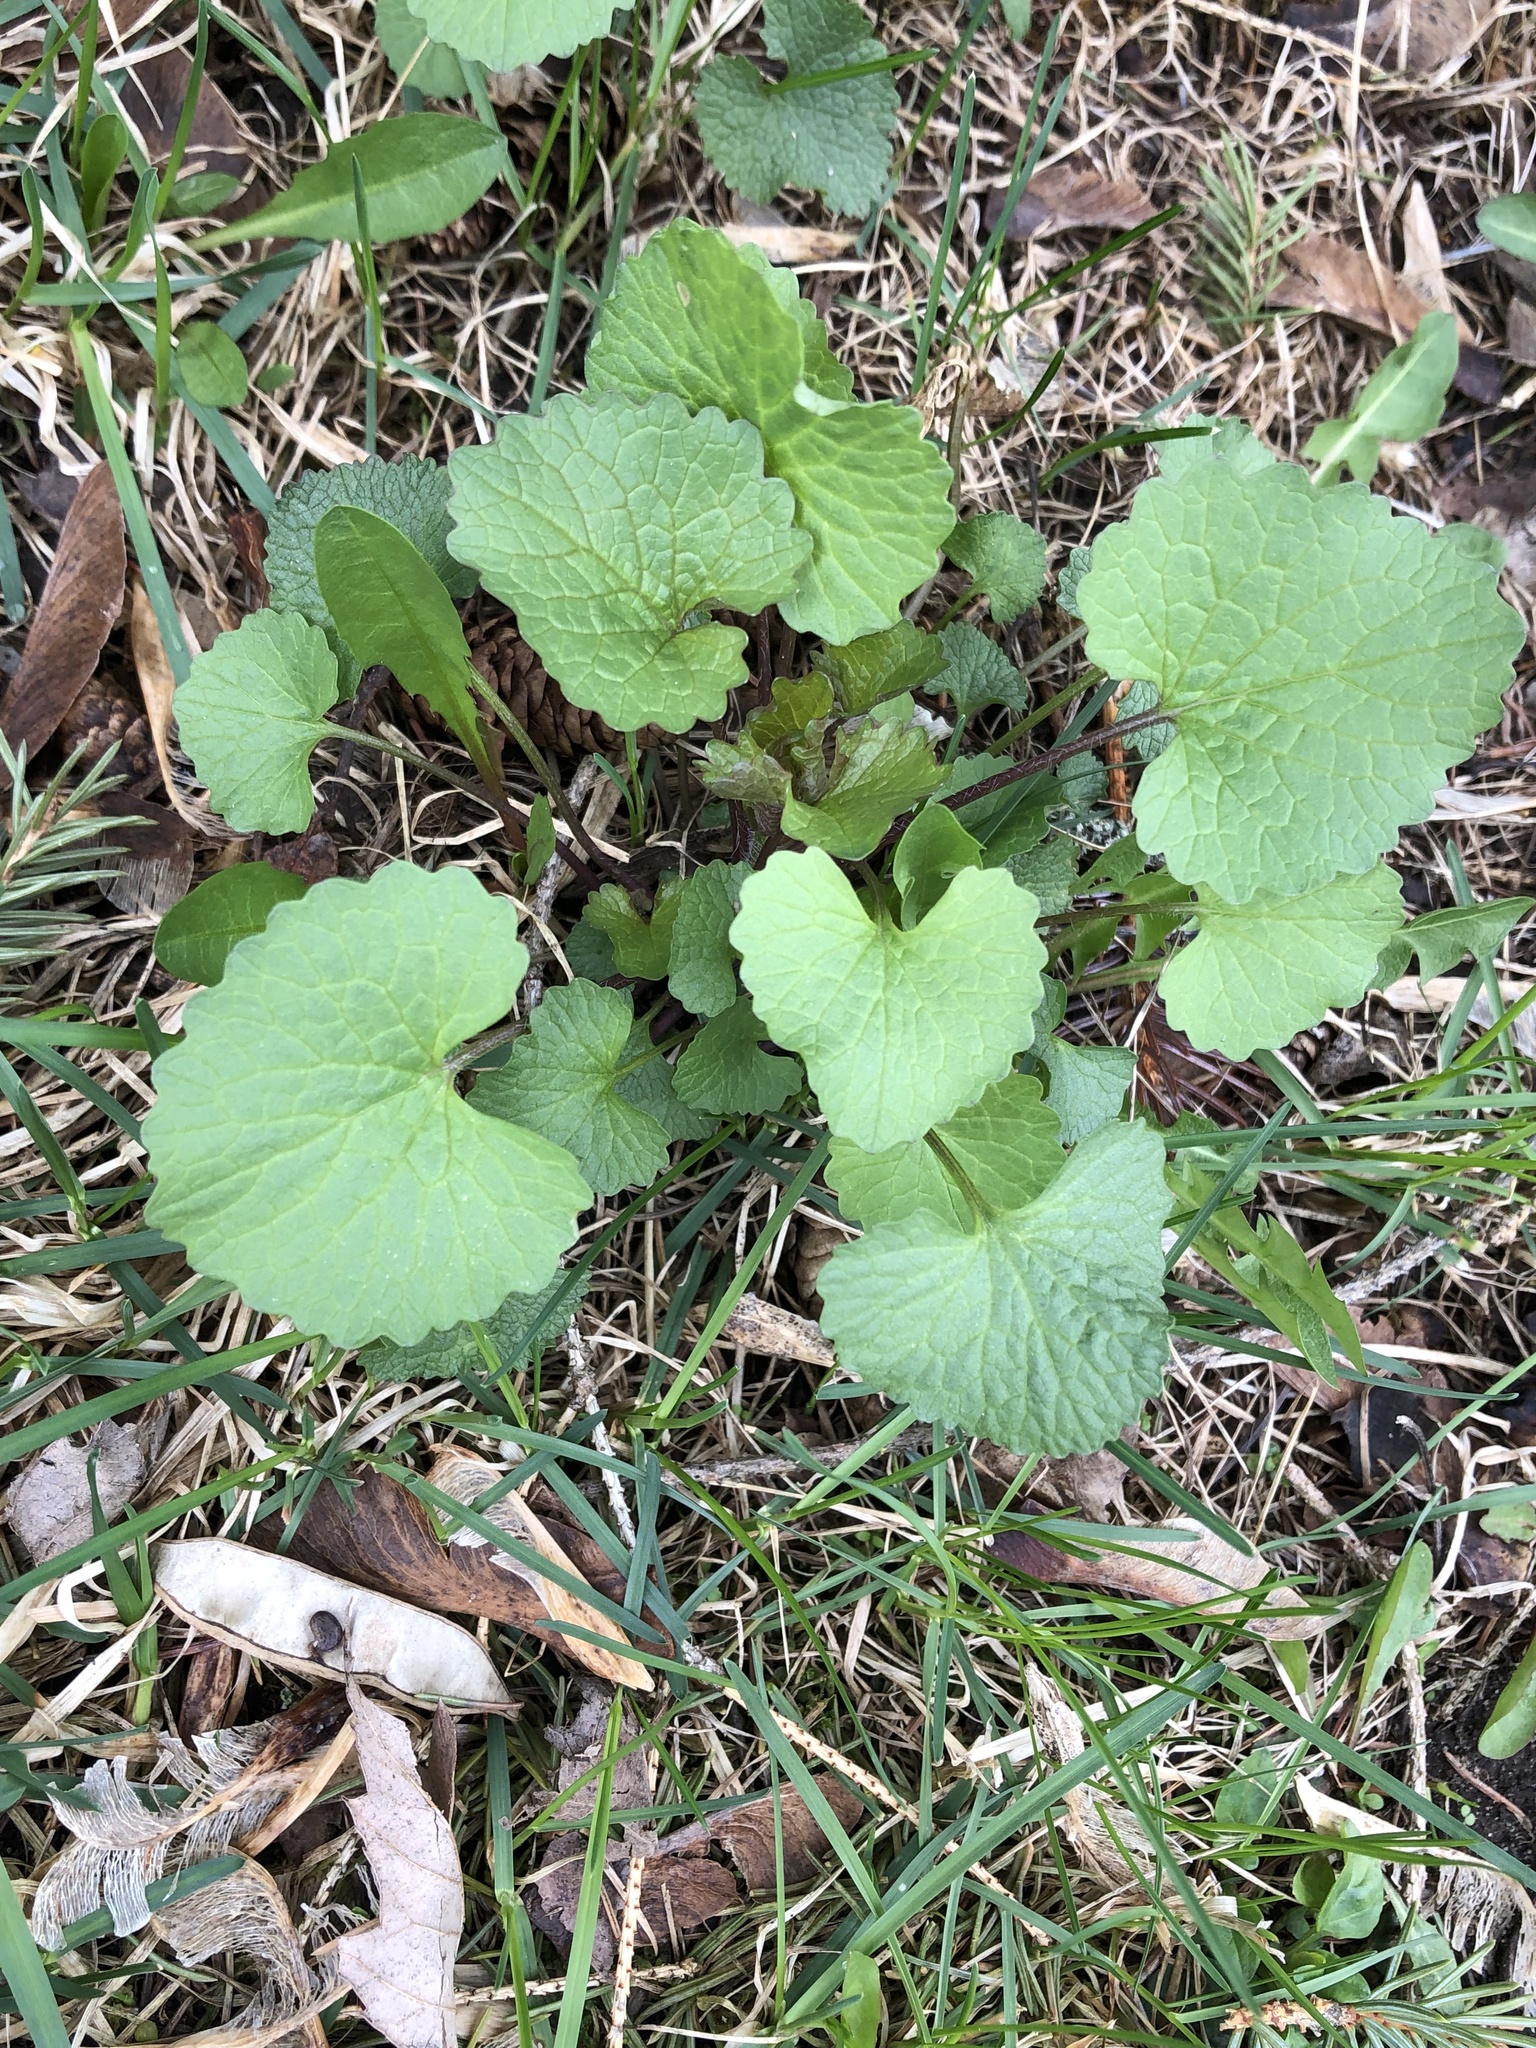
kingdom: Plantae
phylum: Tracheophyta
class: Magnoliopsida
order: Brassicales
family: Brassicaceae
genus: Alliaria
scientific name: Alliaria petiolata
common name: Garlic mustard
